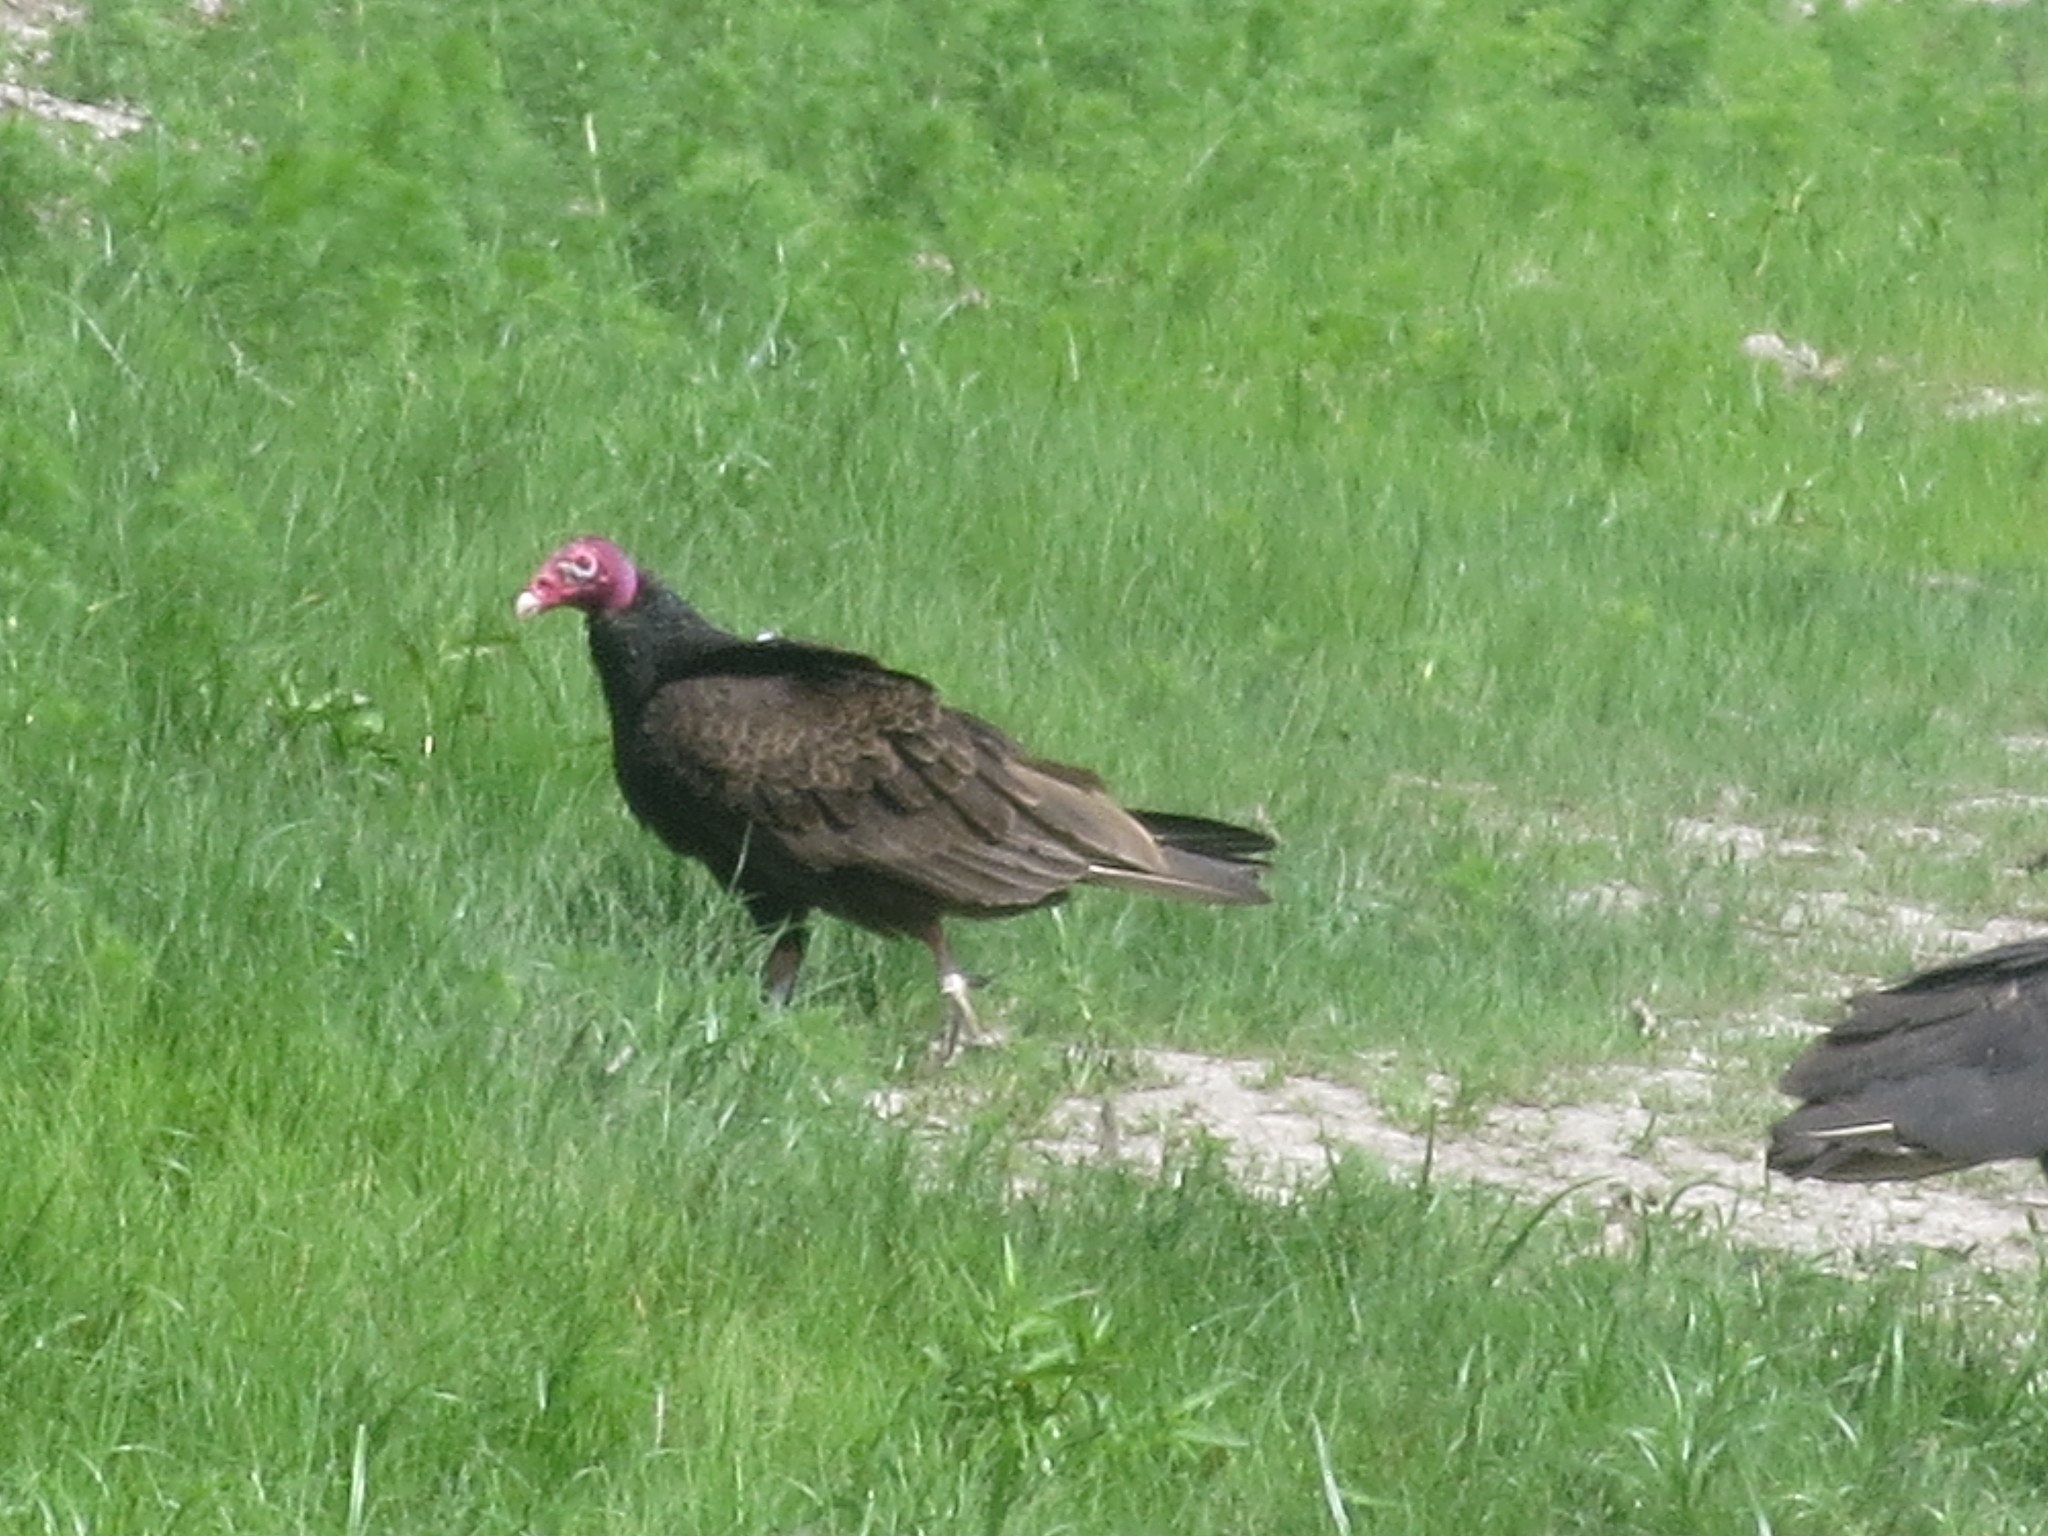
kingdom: Animalia
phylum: Chordata
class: Aves
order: Accipitriformes
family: Cathartidae
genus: Cathartes
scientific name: Cathartes aura
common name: Turkey vulture
